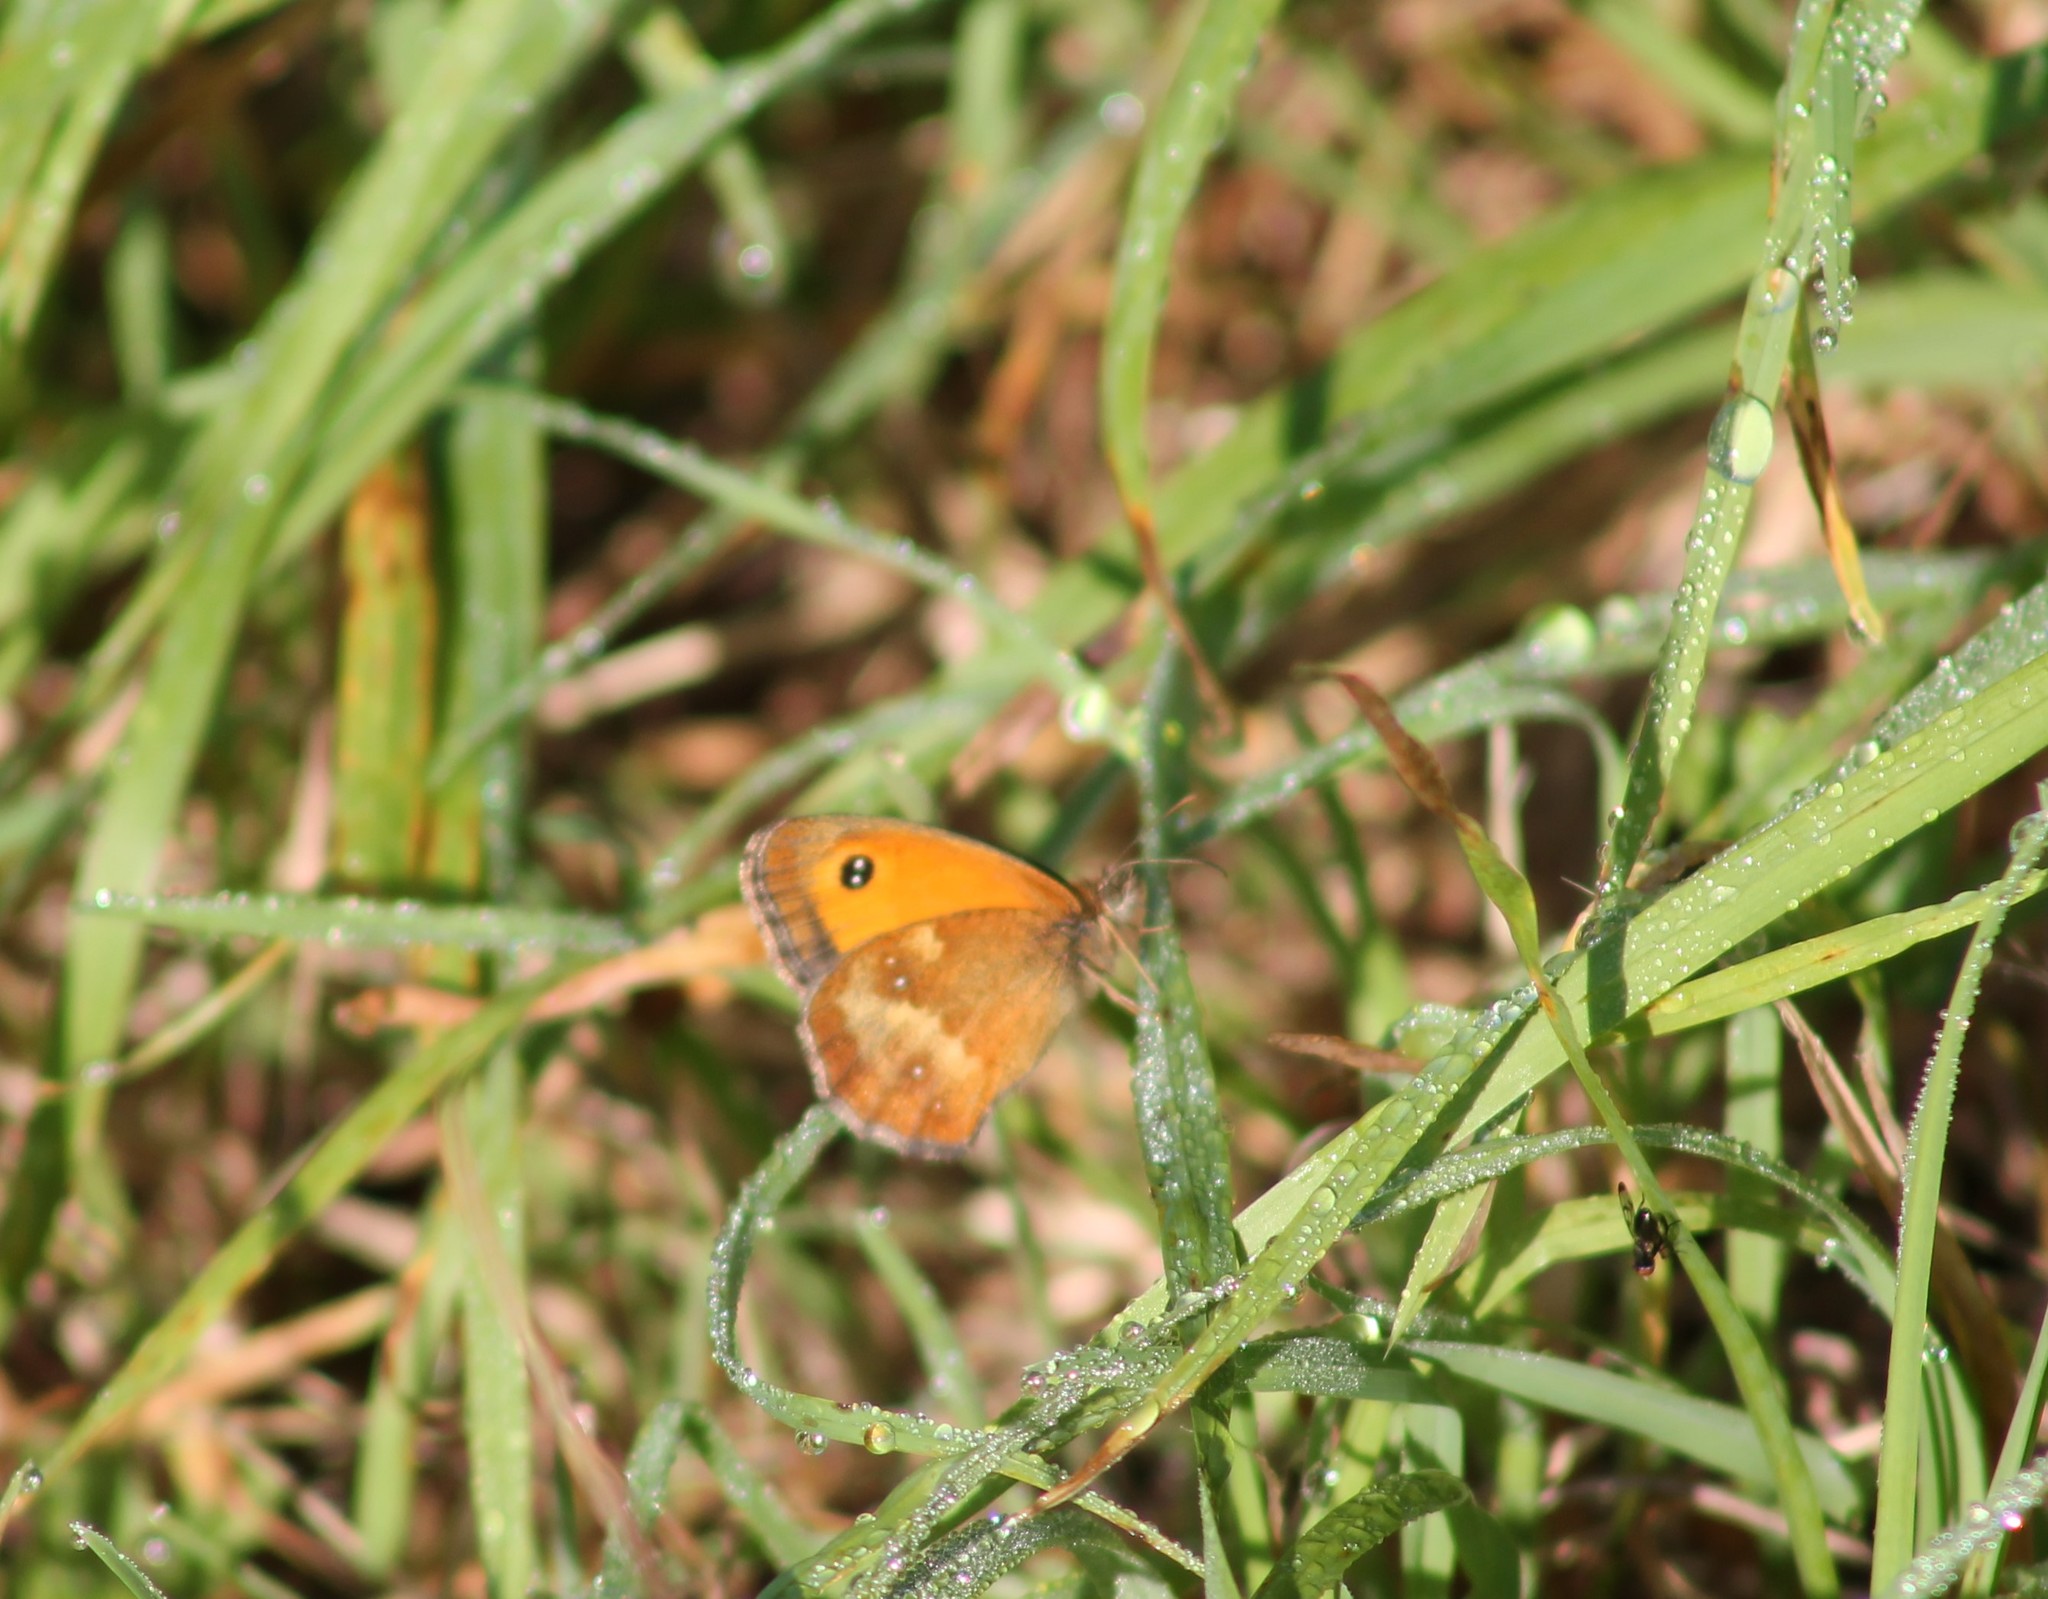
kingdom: Animalia
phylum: Arthropoda
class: Insecta
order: Lepidoptera
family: Nymphalidae
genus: Pyronia
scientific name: Pyronia tithonus
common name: Gatekeeper
